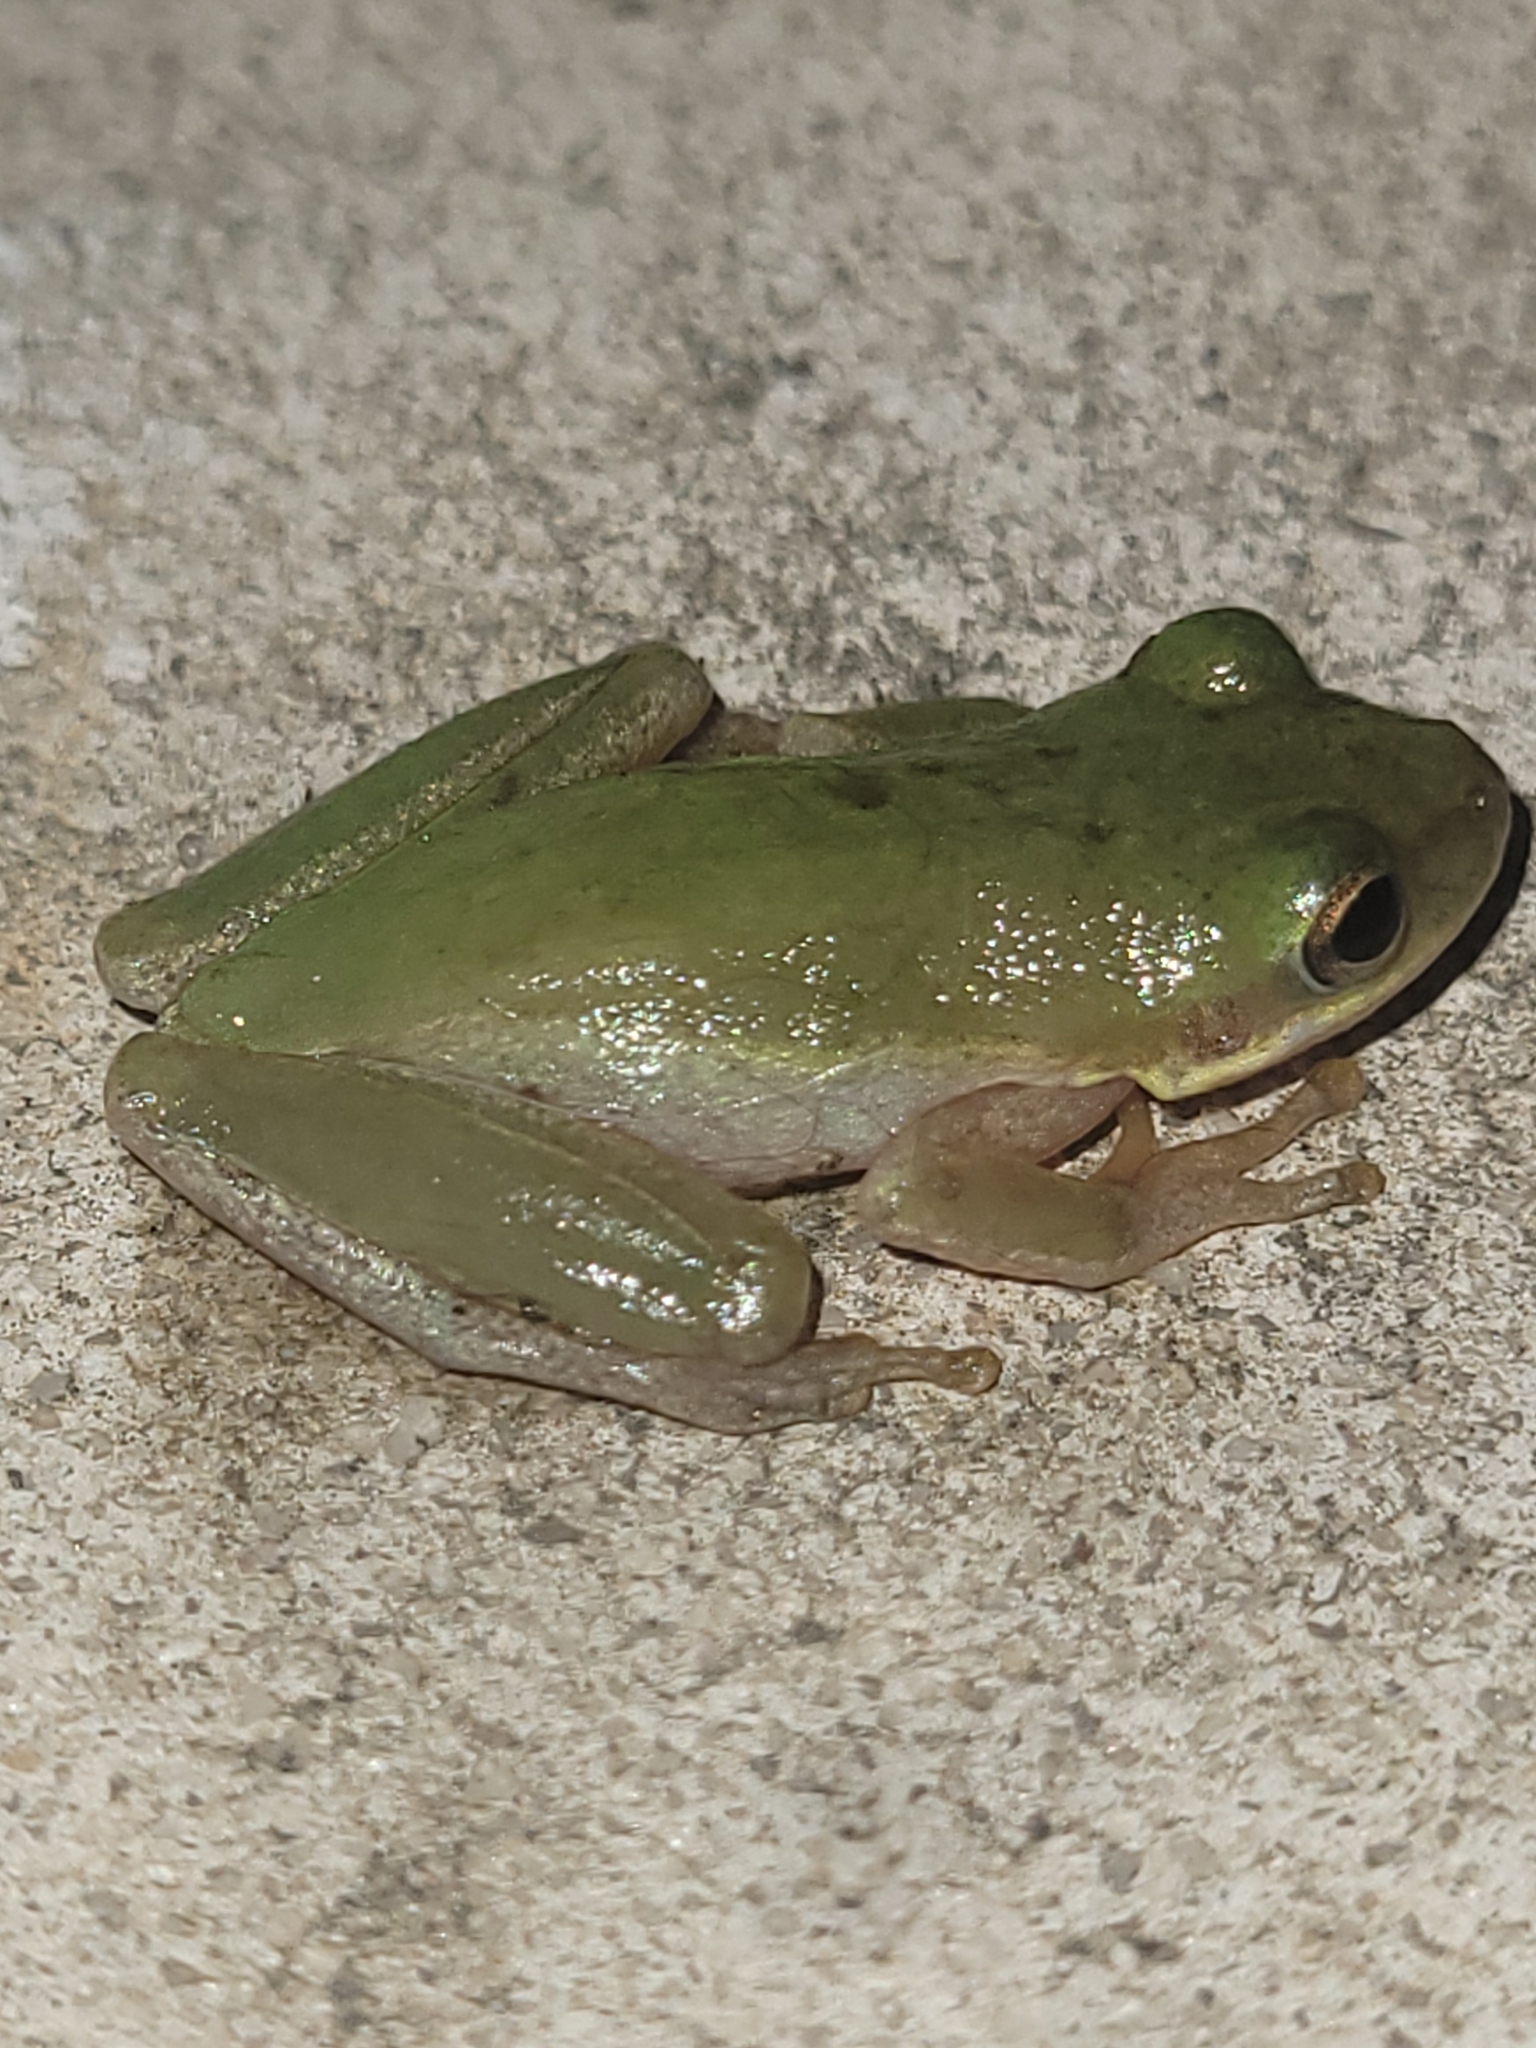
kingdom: Animalia
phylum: Chordata
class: Amphibia
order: Anura
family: Hylidae
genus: Dryophytes
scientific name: Dryophytes squirellus
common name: Squirrel treefrog
